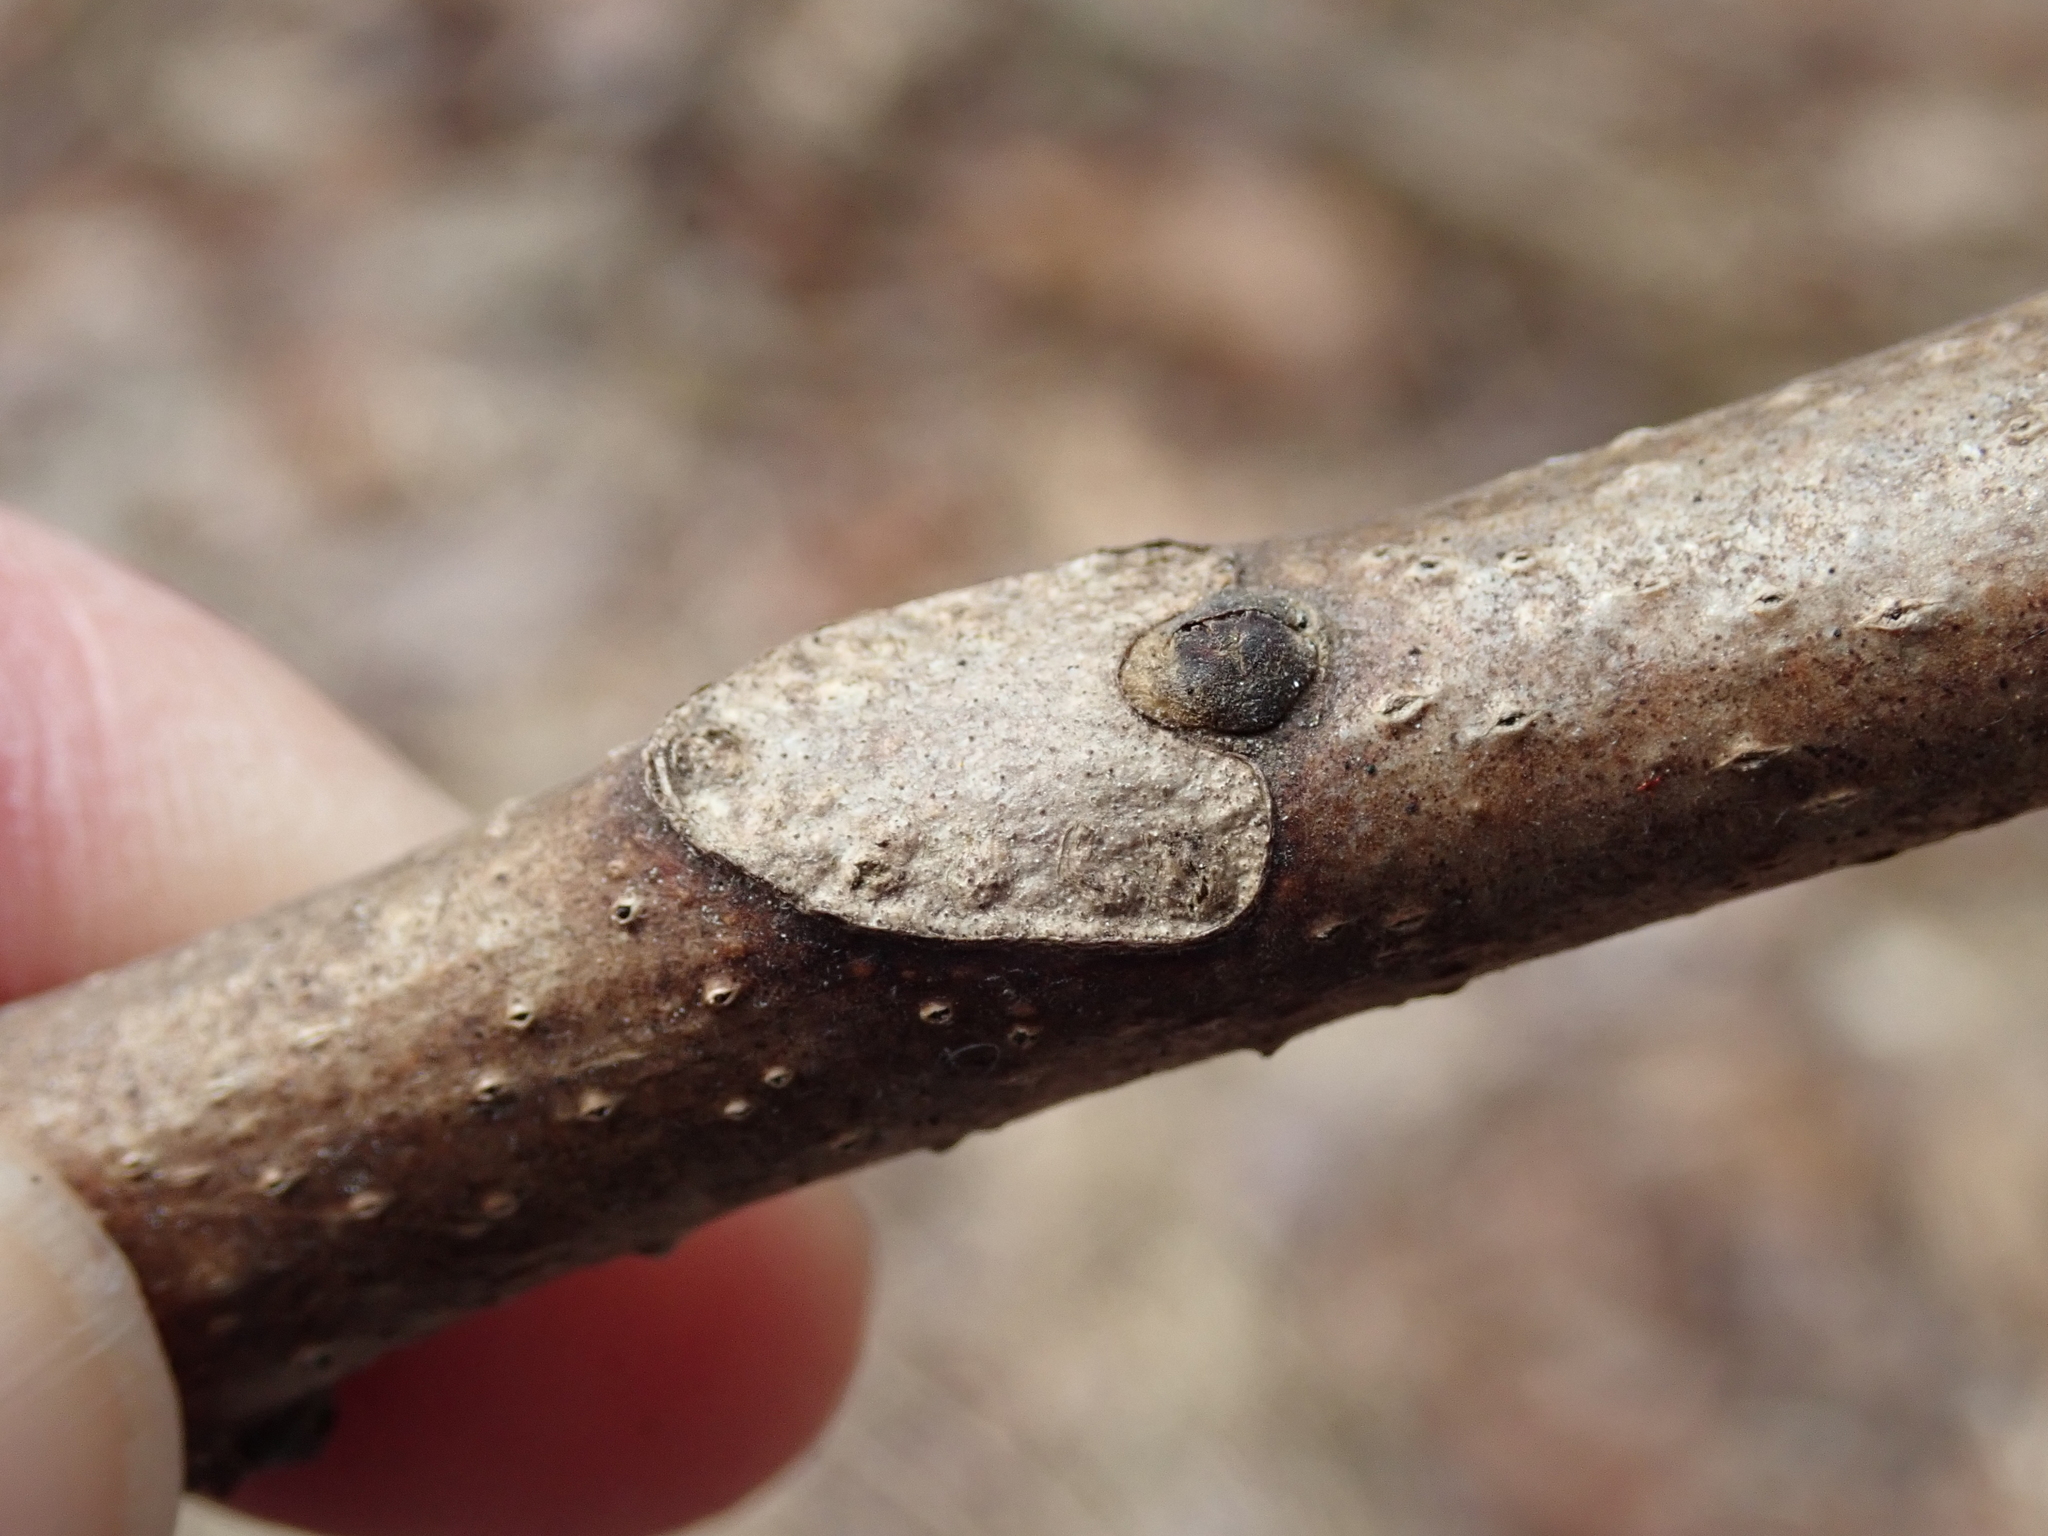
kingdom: Plantae
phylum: Tracheophyta
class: Magnoliopsida
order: Sapindales
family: Simaroubaceae
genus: Ailanthus
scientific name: Ailanthus altissima
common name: Tree-of-heaven
